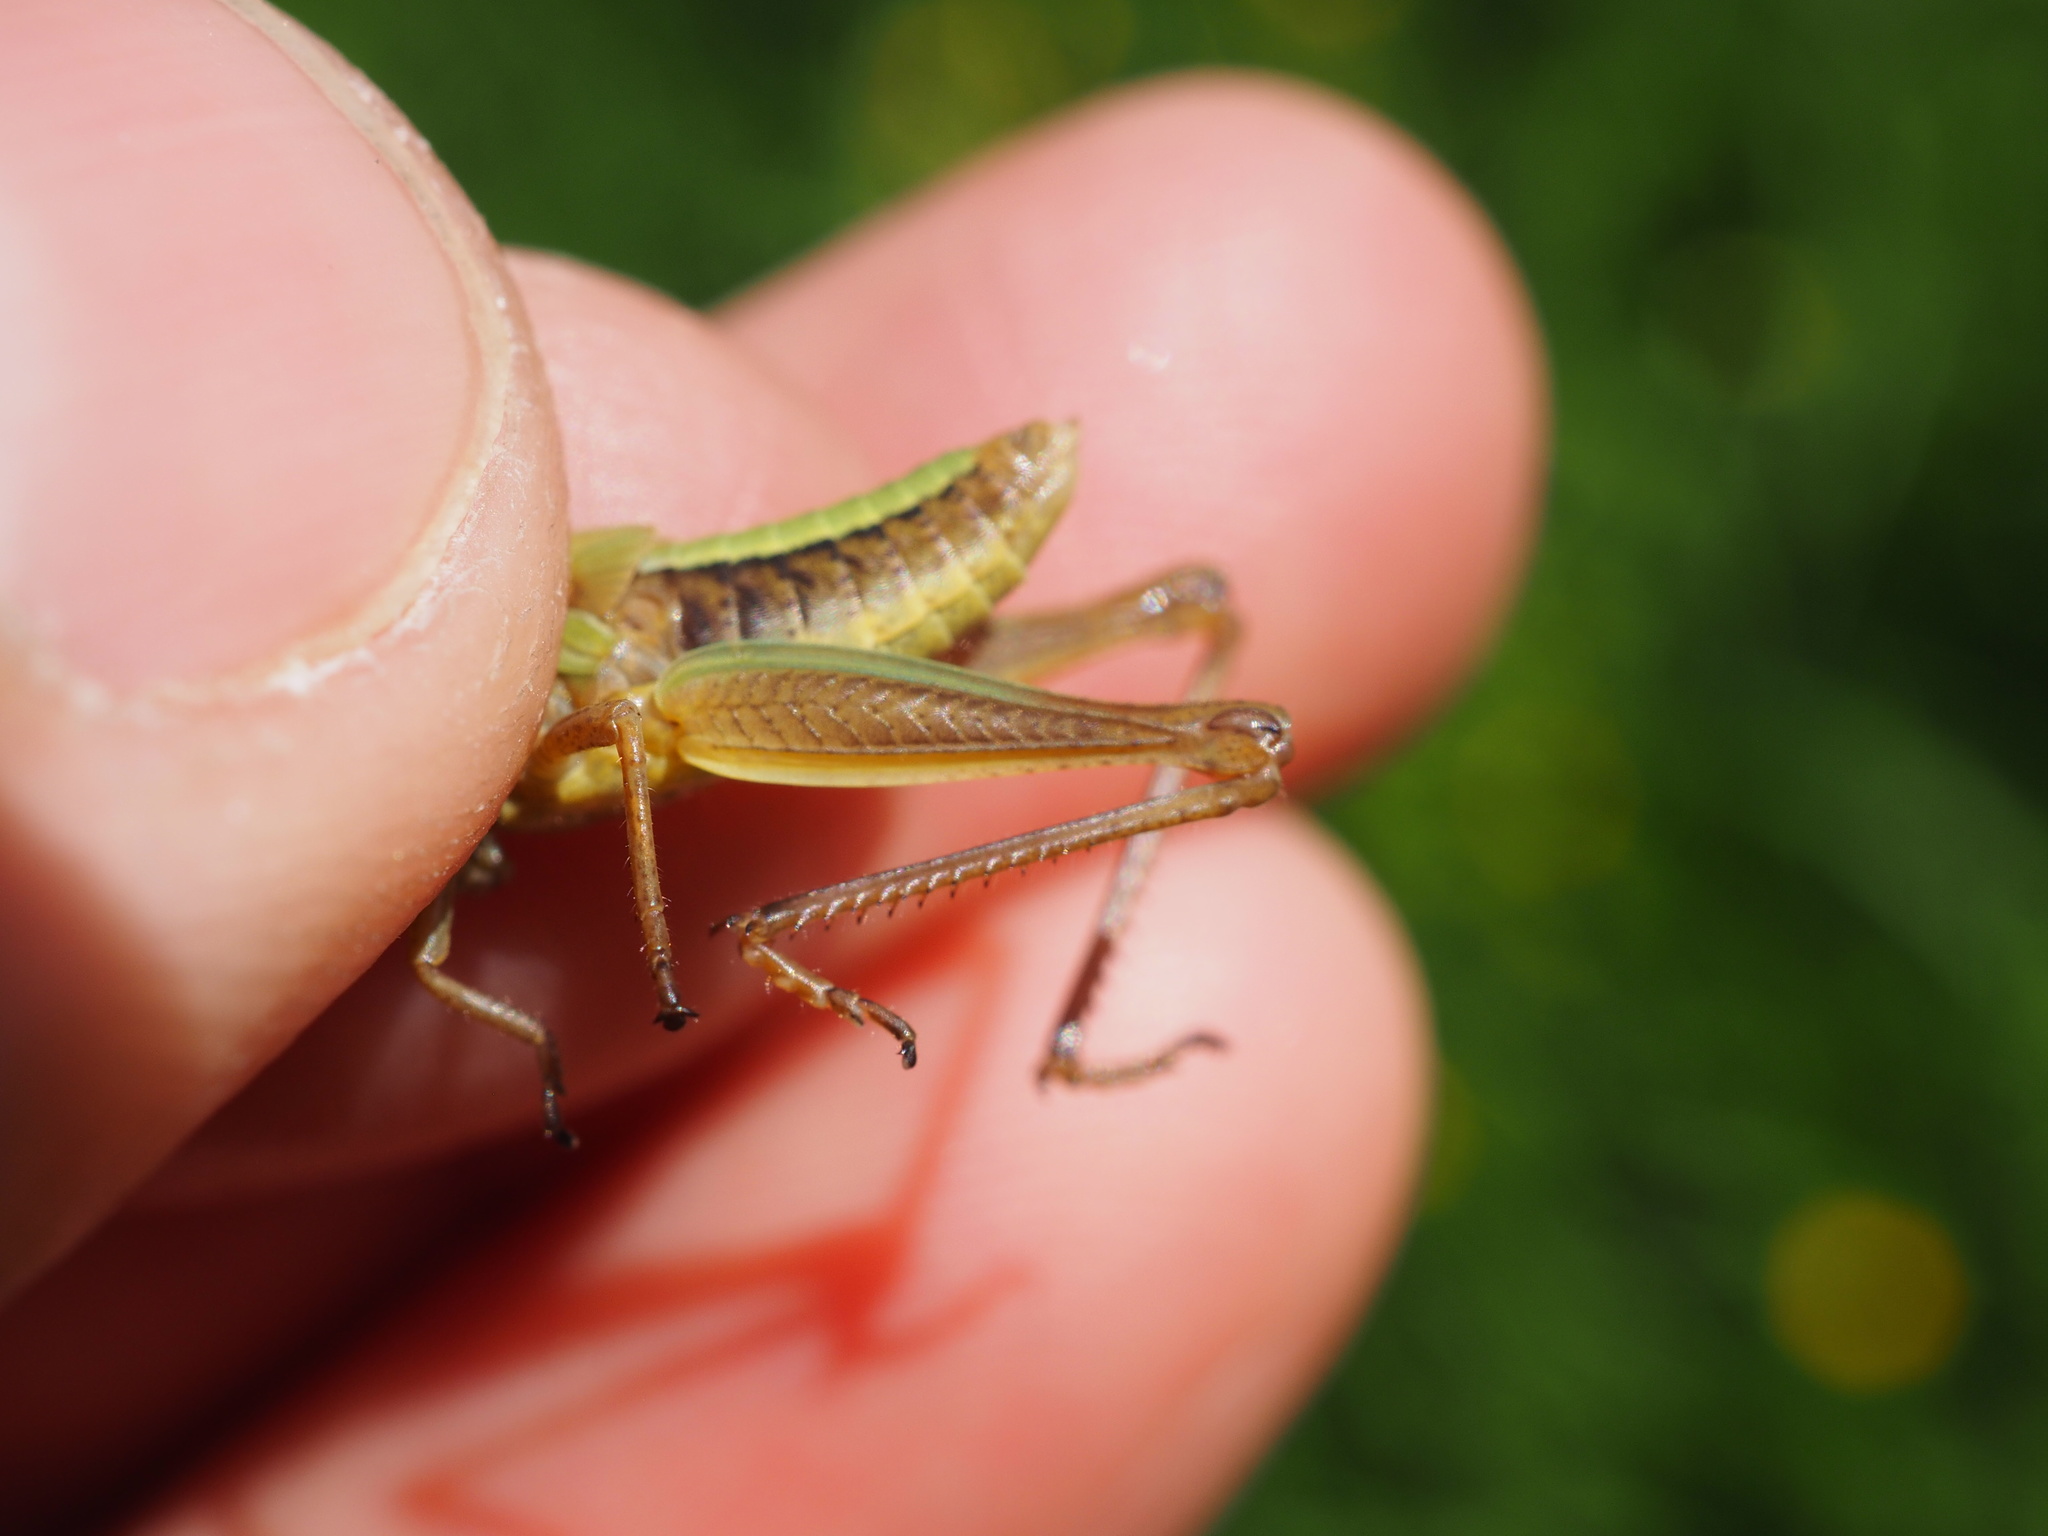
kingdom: Animalia
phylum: Arthropoda
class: Insecta
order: Orthoptera
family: Acrididae
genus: Pseudochorthippus
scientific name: Pseudochorthippus parallelus
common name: Meadow grasshopper
